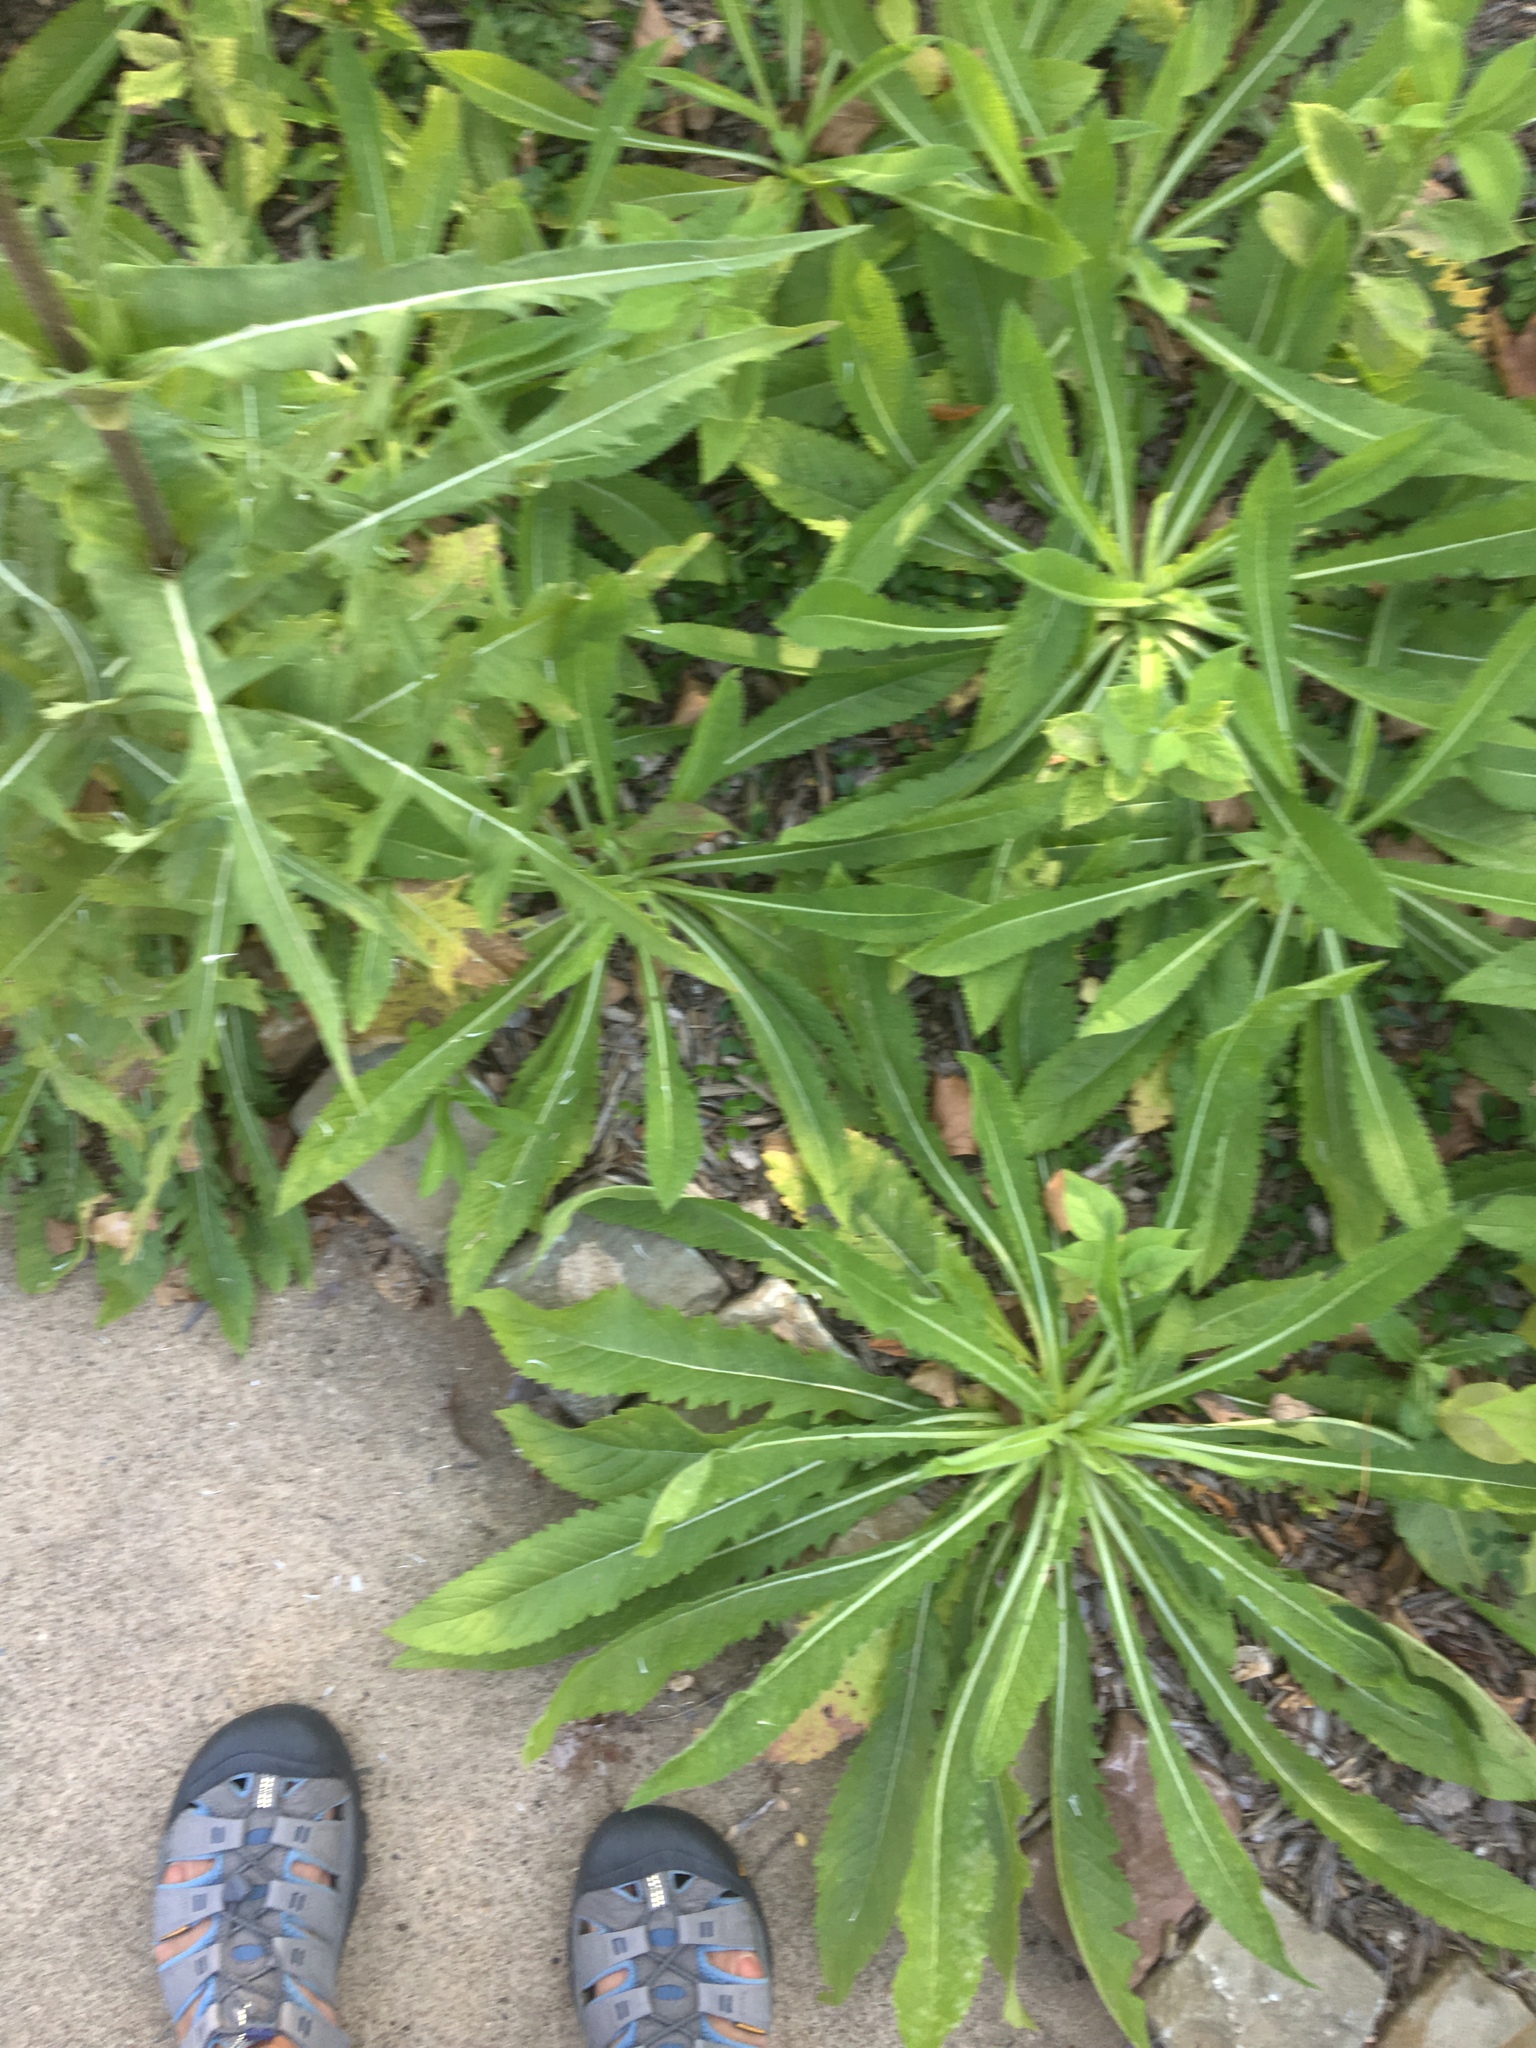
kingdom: Plantae
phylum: Tracheophyta
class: Magnoliopsida
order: Dipsacales
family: Caprifoliaceae
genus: Dipsacus
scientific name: Dipsacus laciniatus
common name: Cut-leaved teasel
